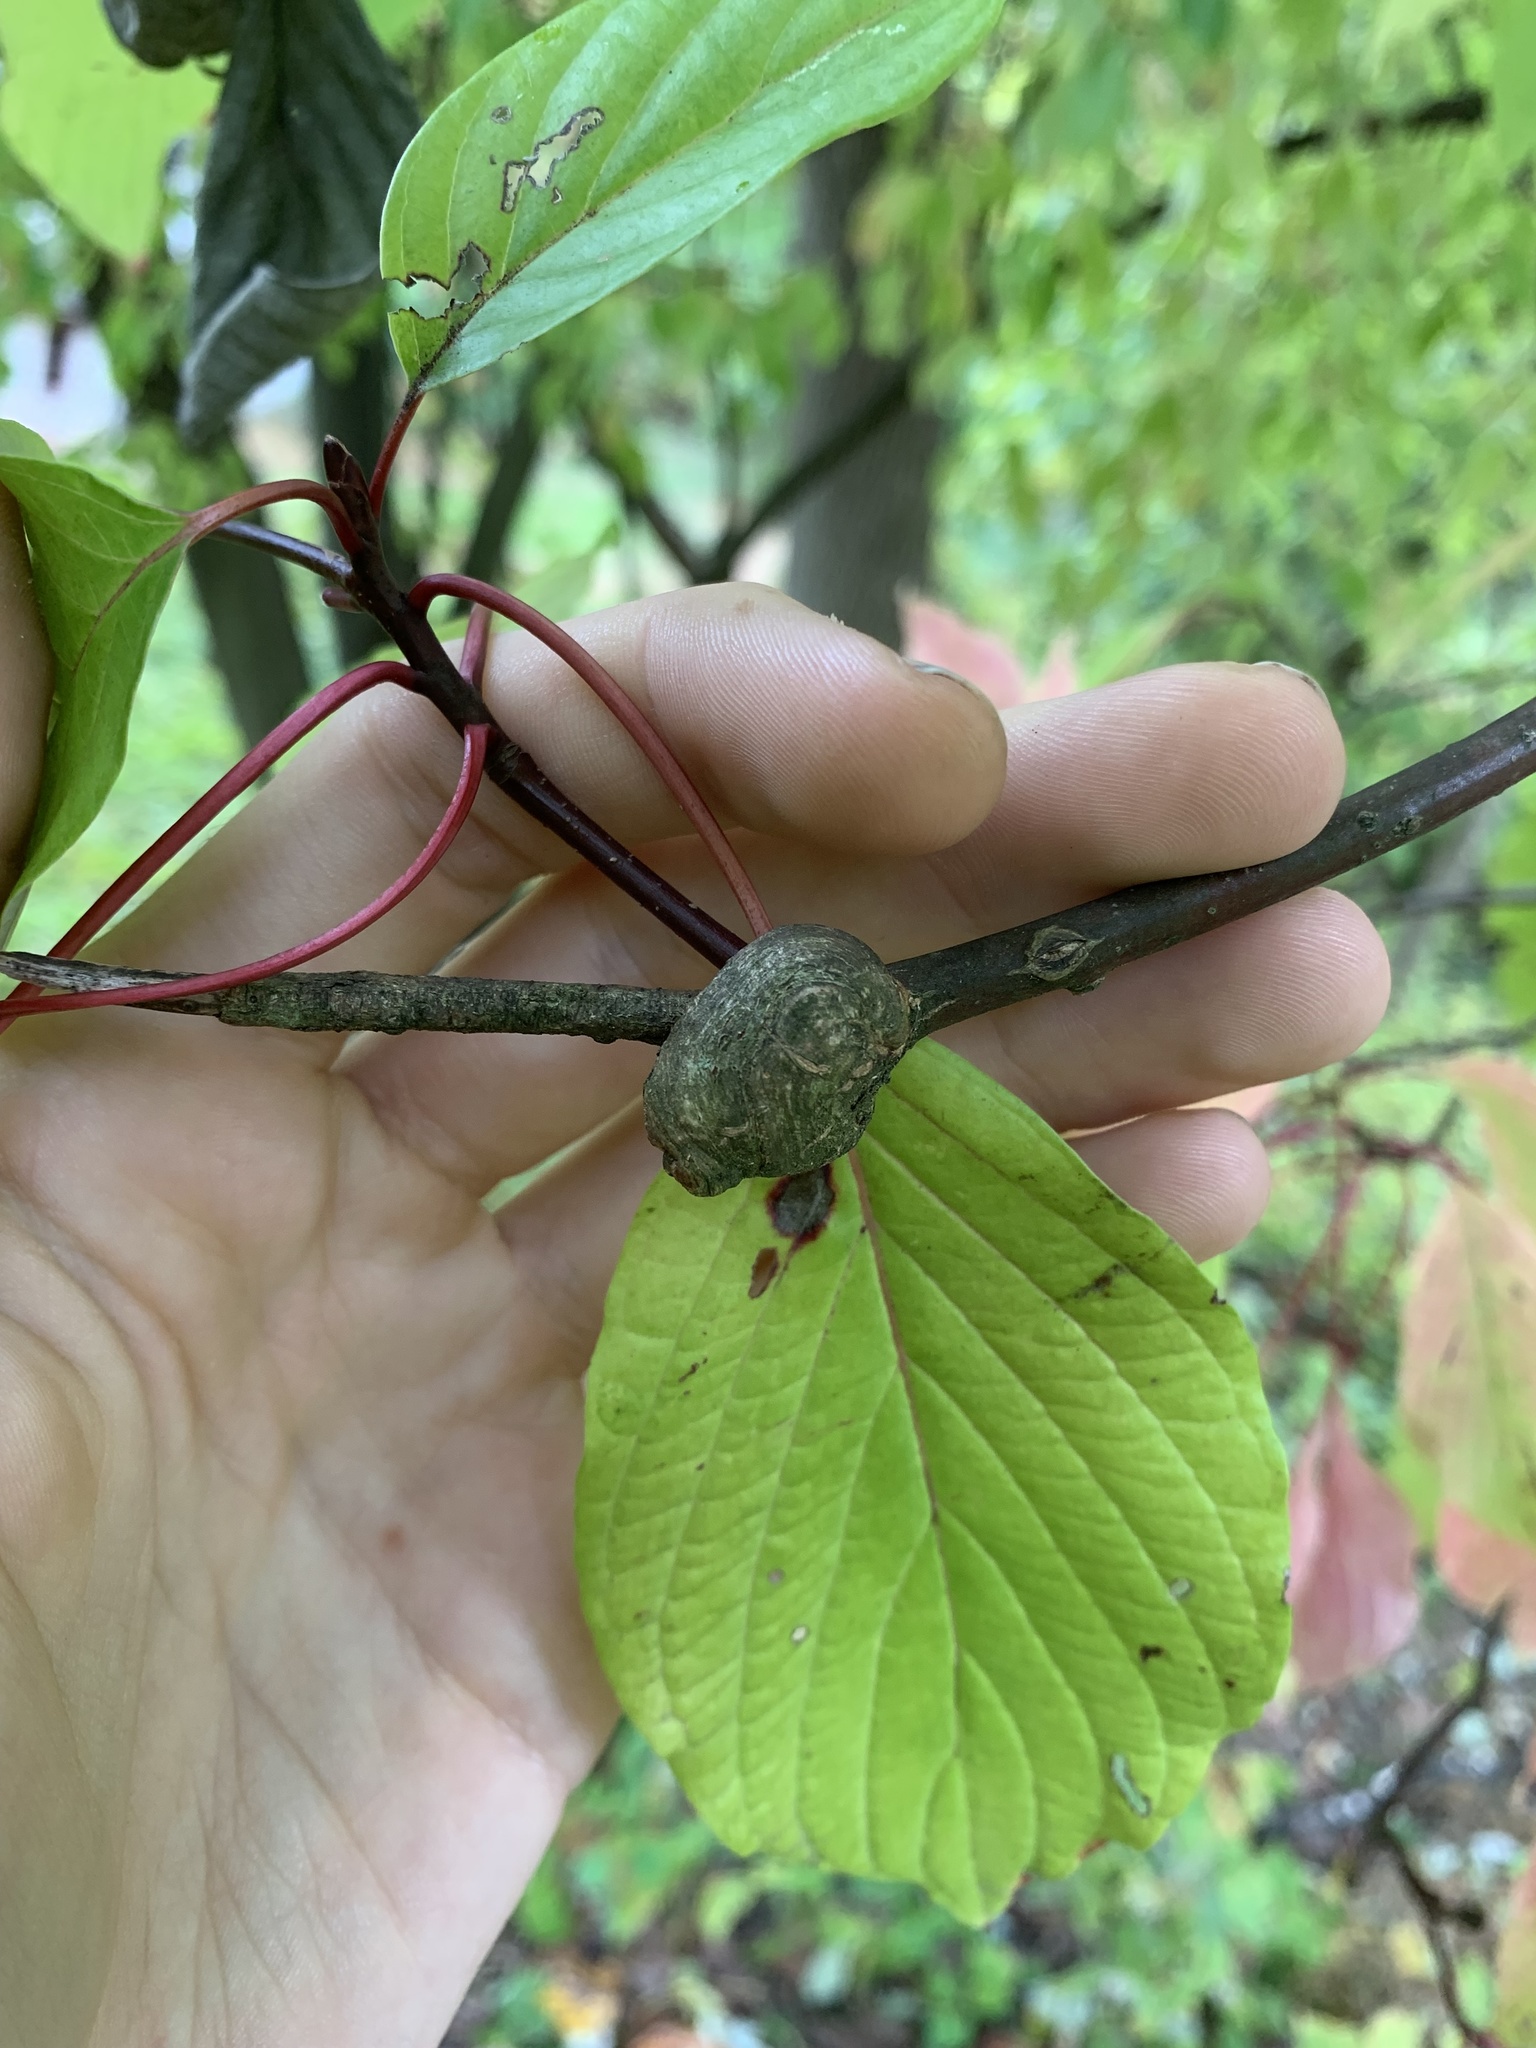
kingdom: Plantae
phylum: Tracheophyta
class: Magnoliopsida
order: Cornales
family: Cornaceae
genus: Cornus
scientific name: Cornus alternifolia
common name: Pagoda dogwood
